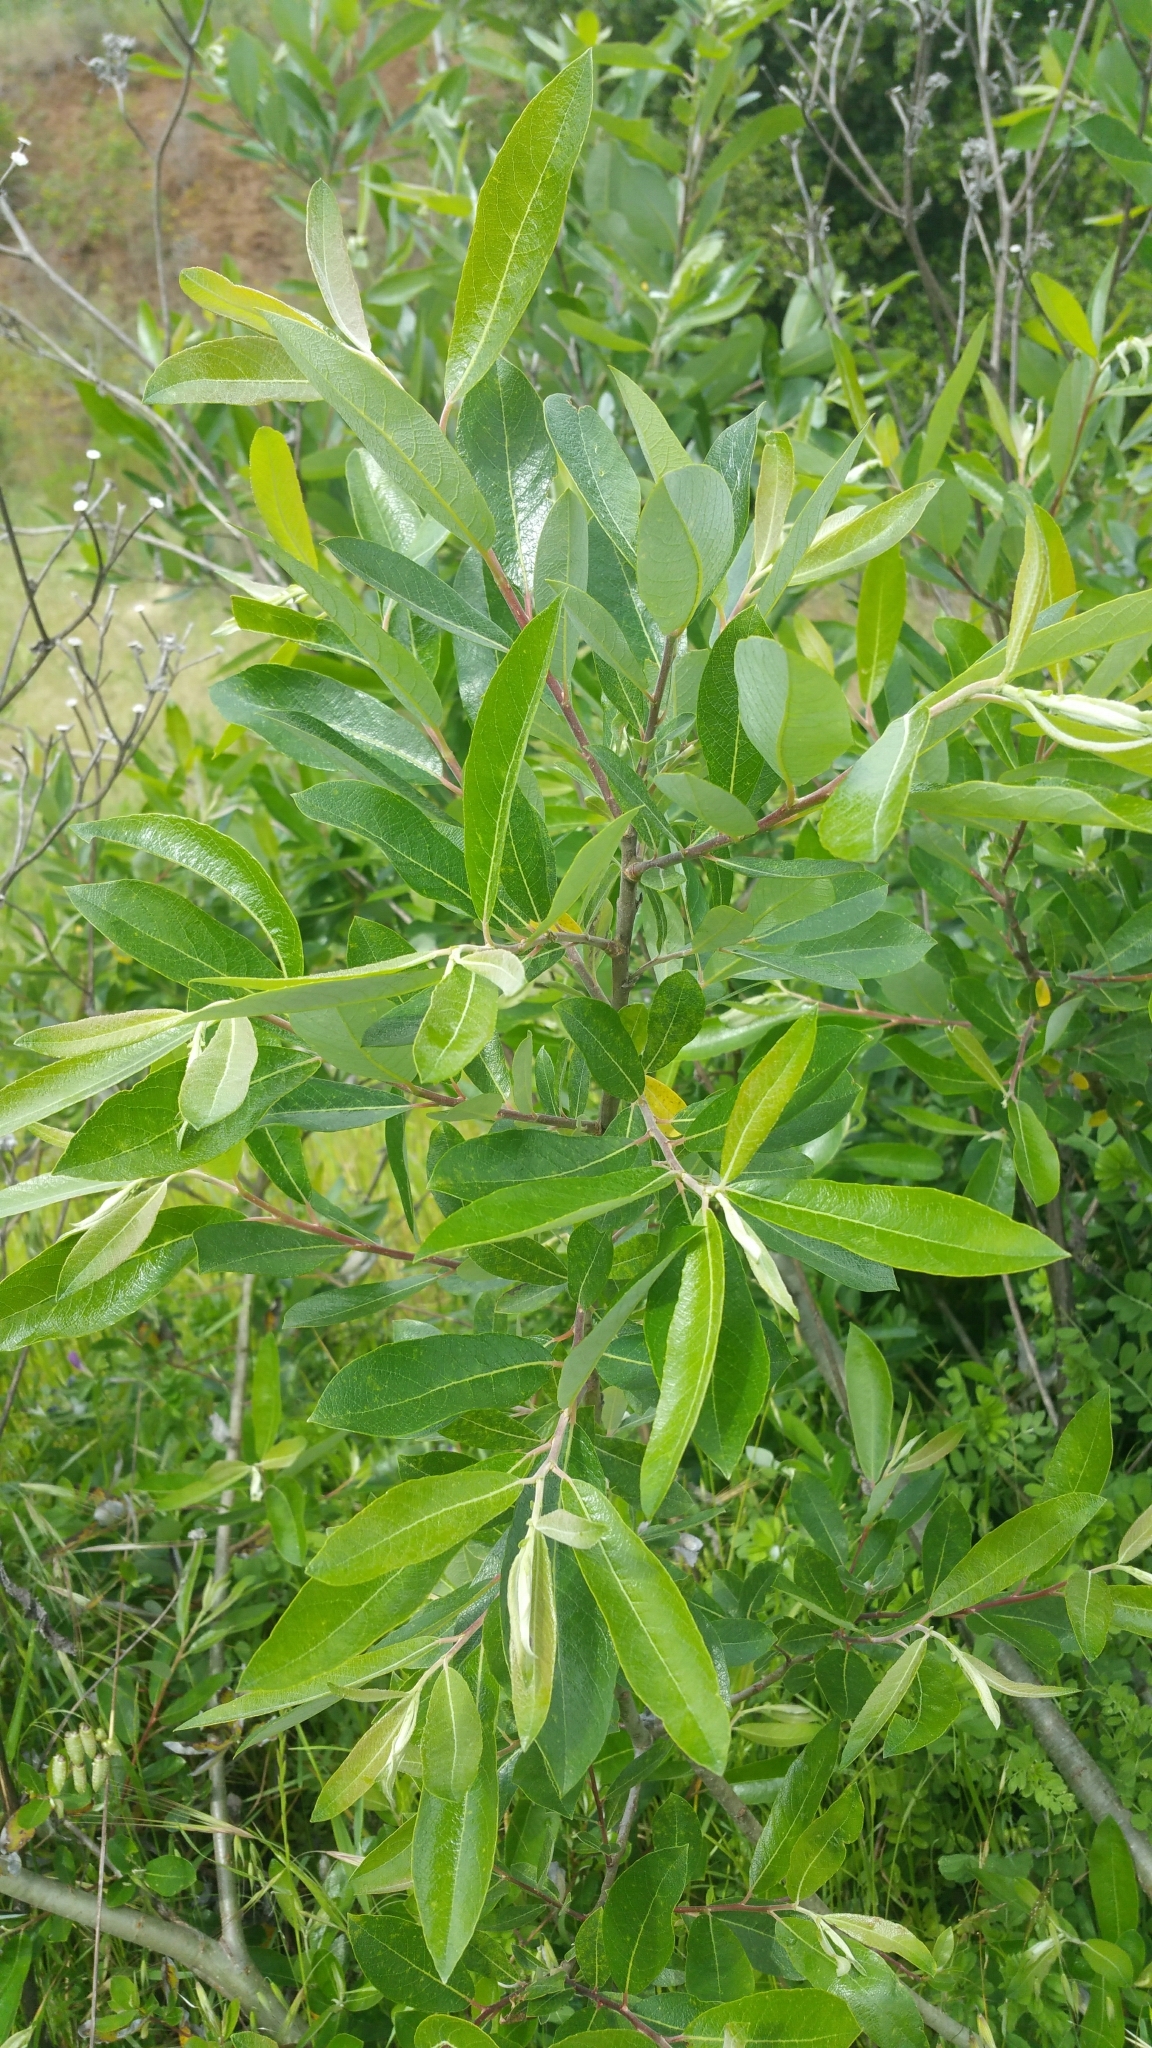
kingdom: Plantae
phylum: Tracheophyta
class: Magnoliopsida
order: Malpighiales
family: Salicaceae
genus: Salix
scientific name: Salix lasiolepis
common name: Arroyo willow
